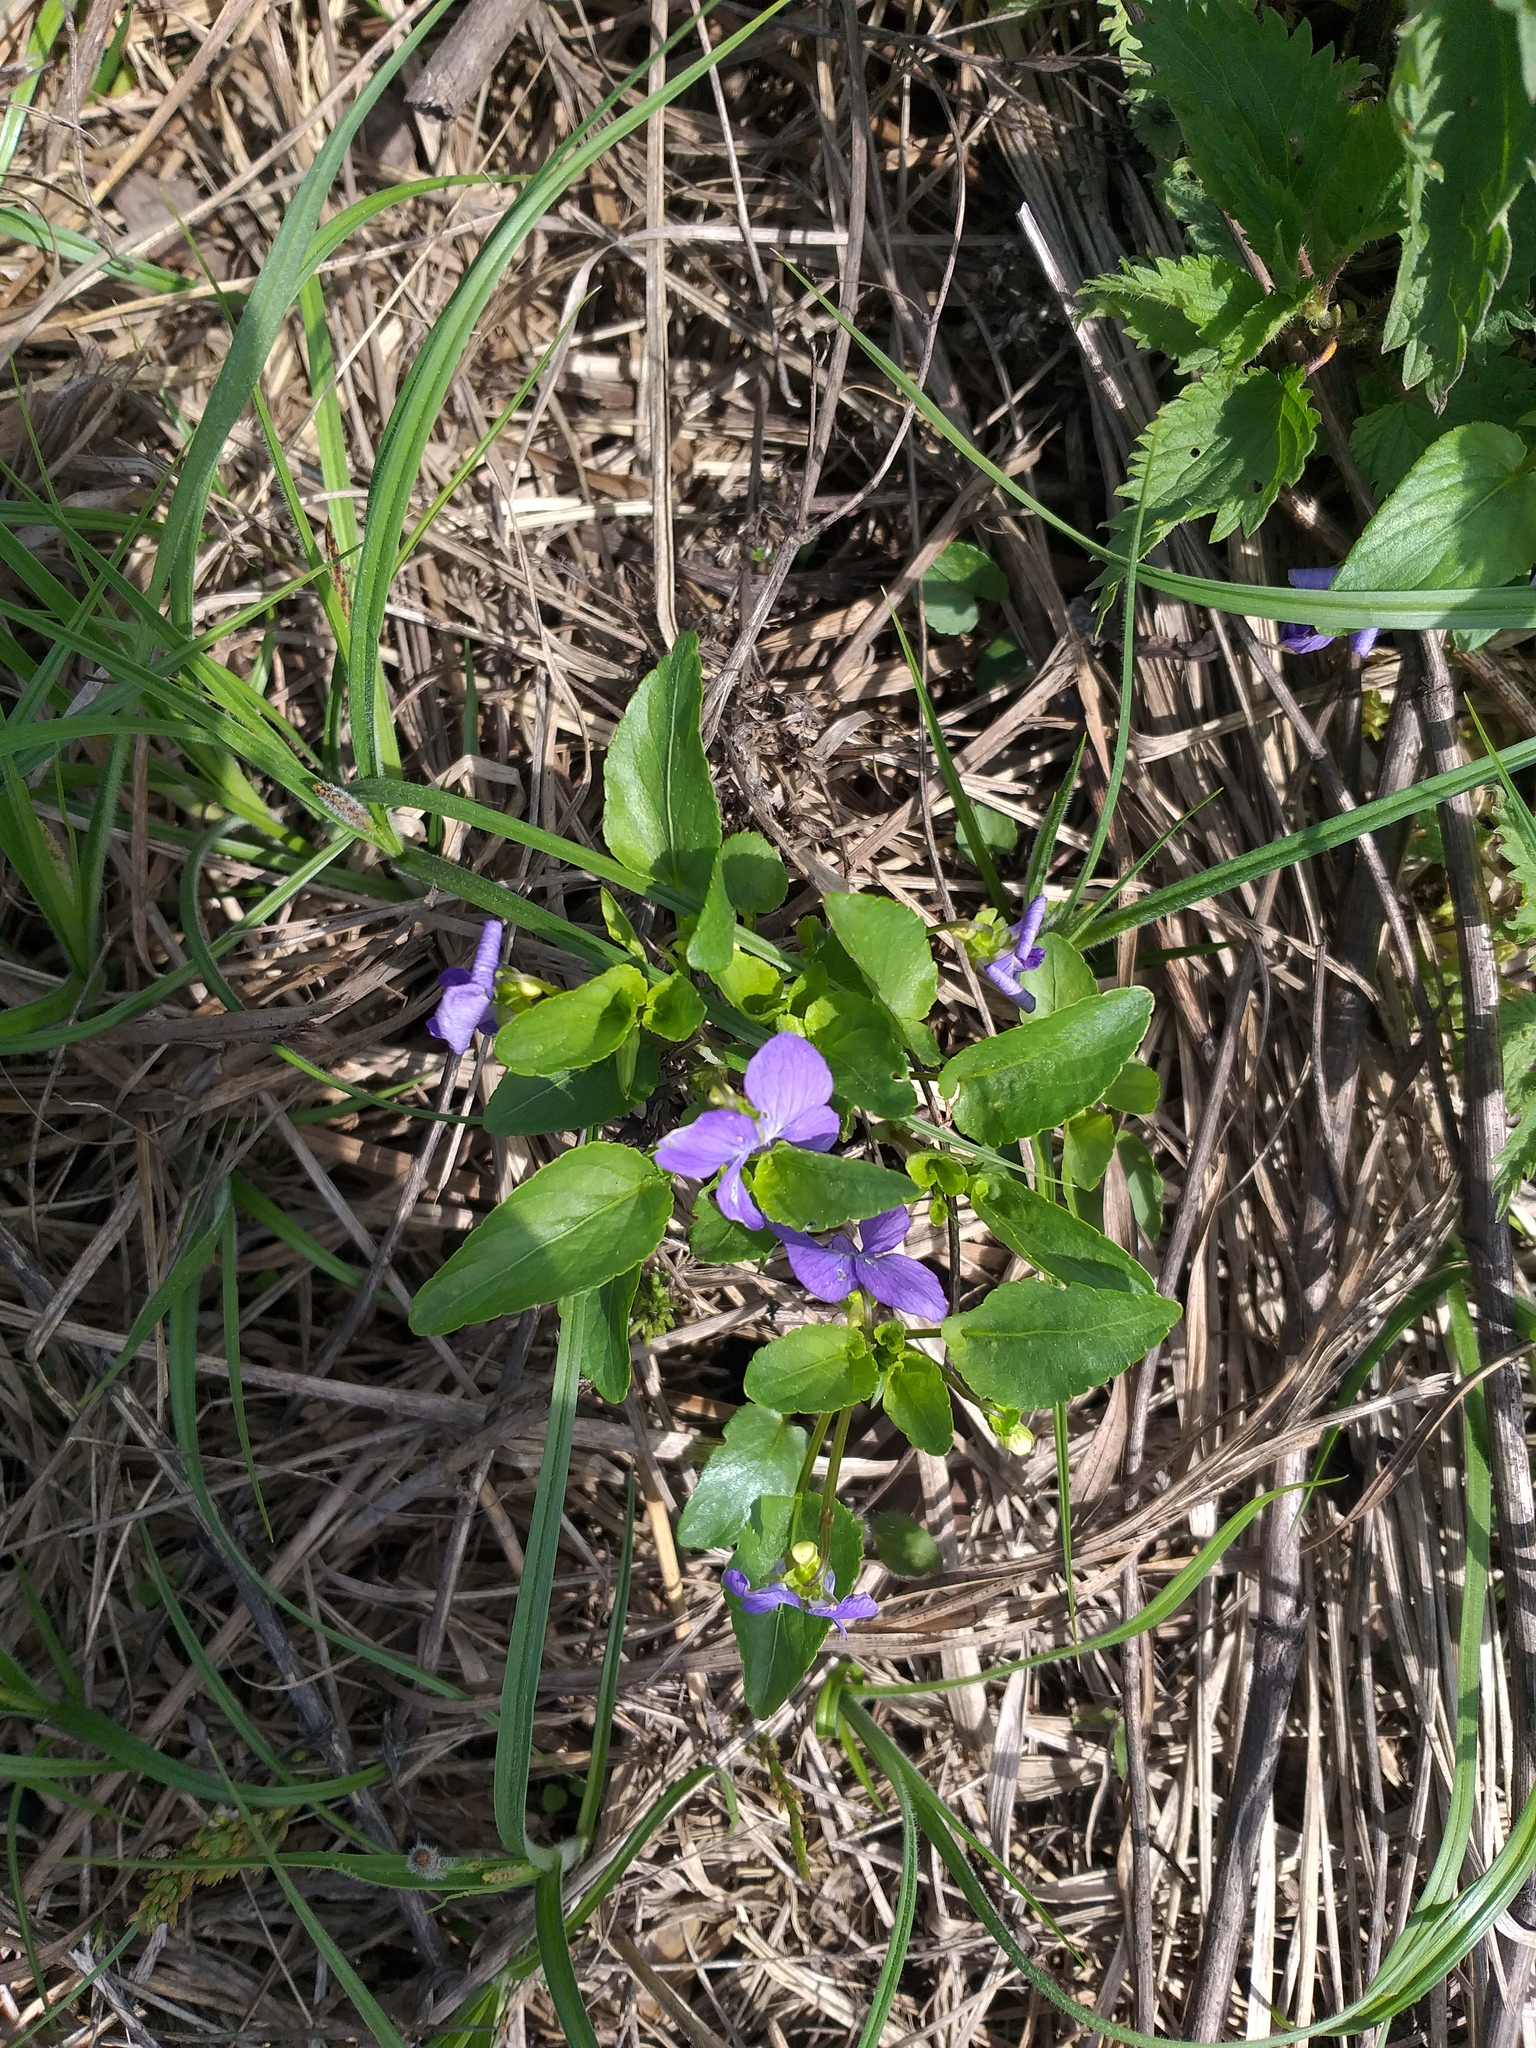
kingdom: Plantae
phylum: Tracheophyta
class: Magnoliopsida
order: Malpighiales
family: Violaceae
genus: Viola
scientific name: Viola canina
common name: Heath dog-violet
